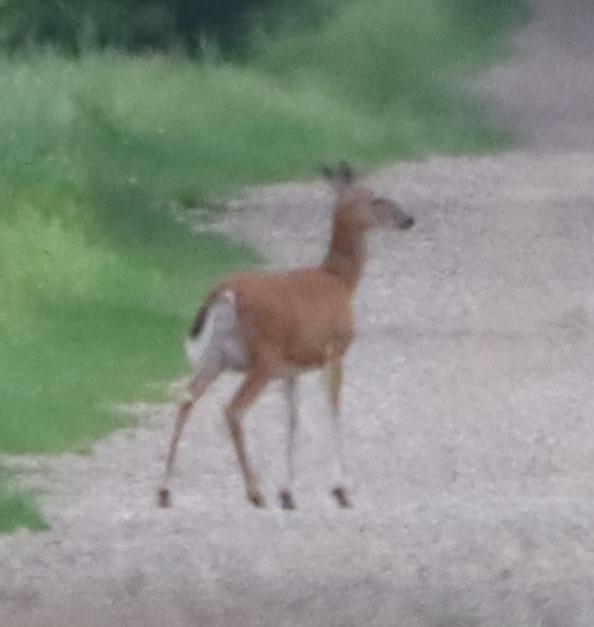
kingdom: Animalia
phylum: Chordata
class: Mammalia
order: Artiodactyla
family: Cervidae
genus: Odocoileus
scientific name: Odocoileus virginianus
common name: White-tailed deer
